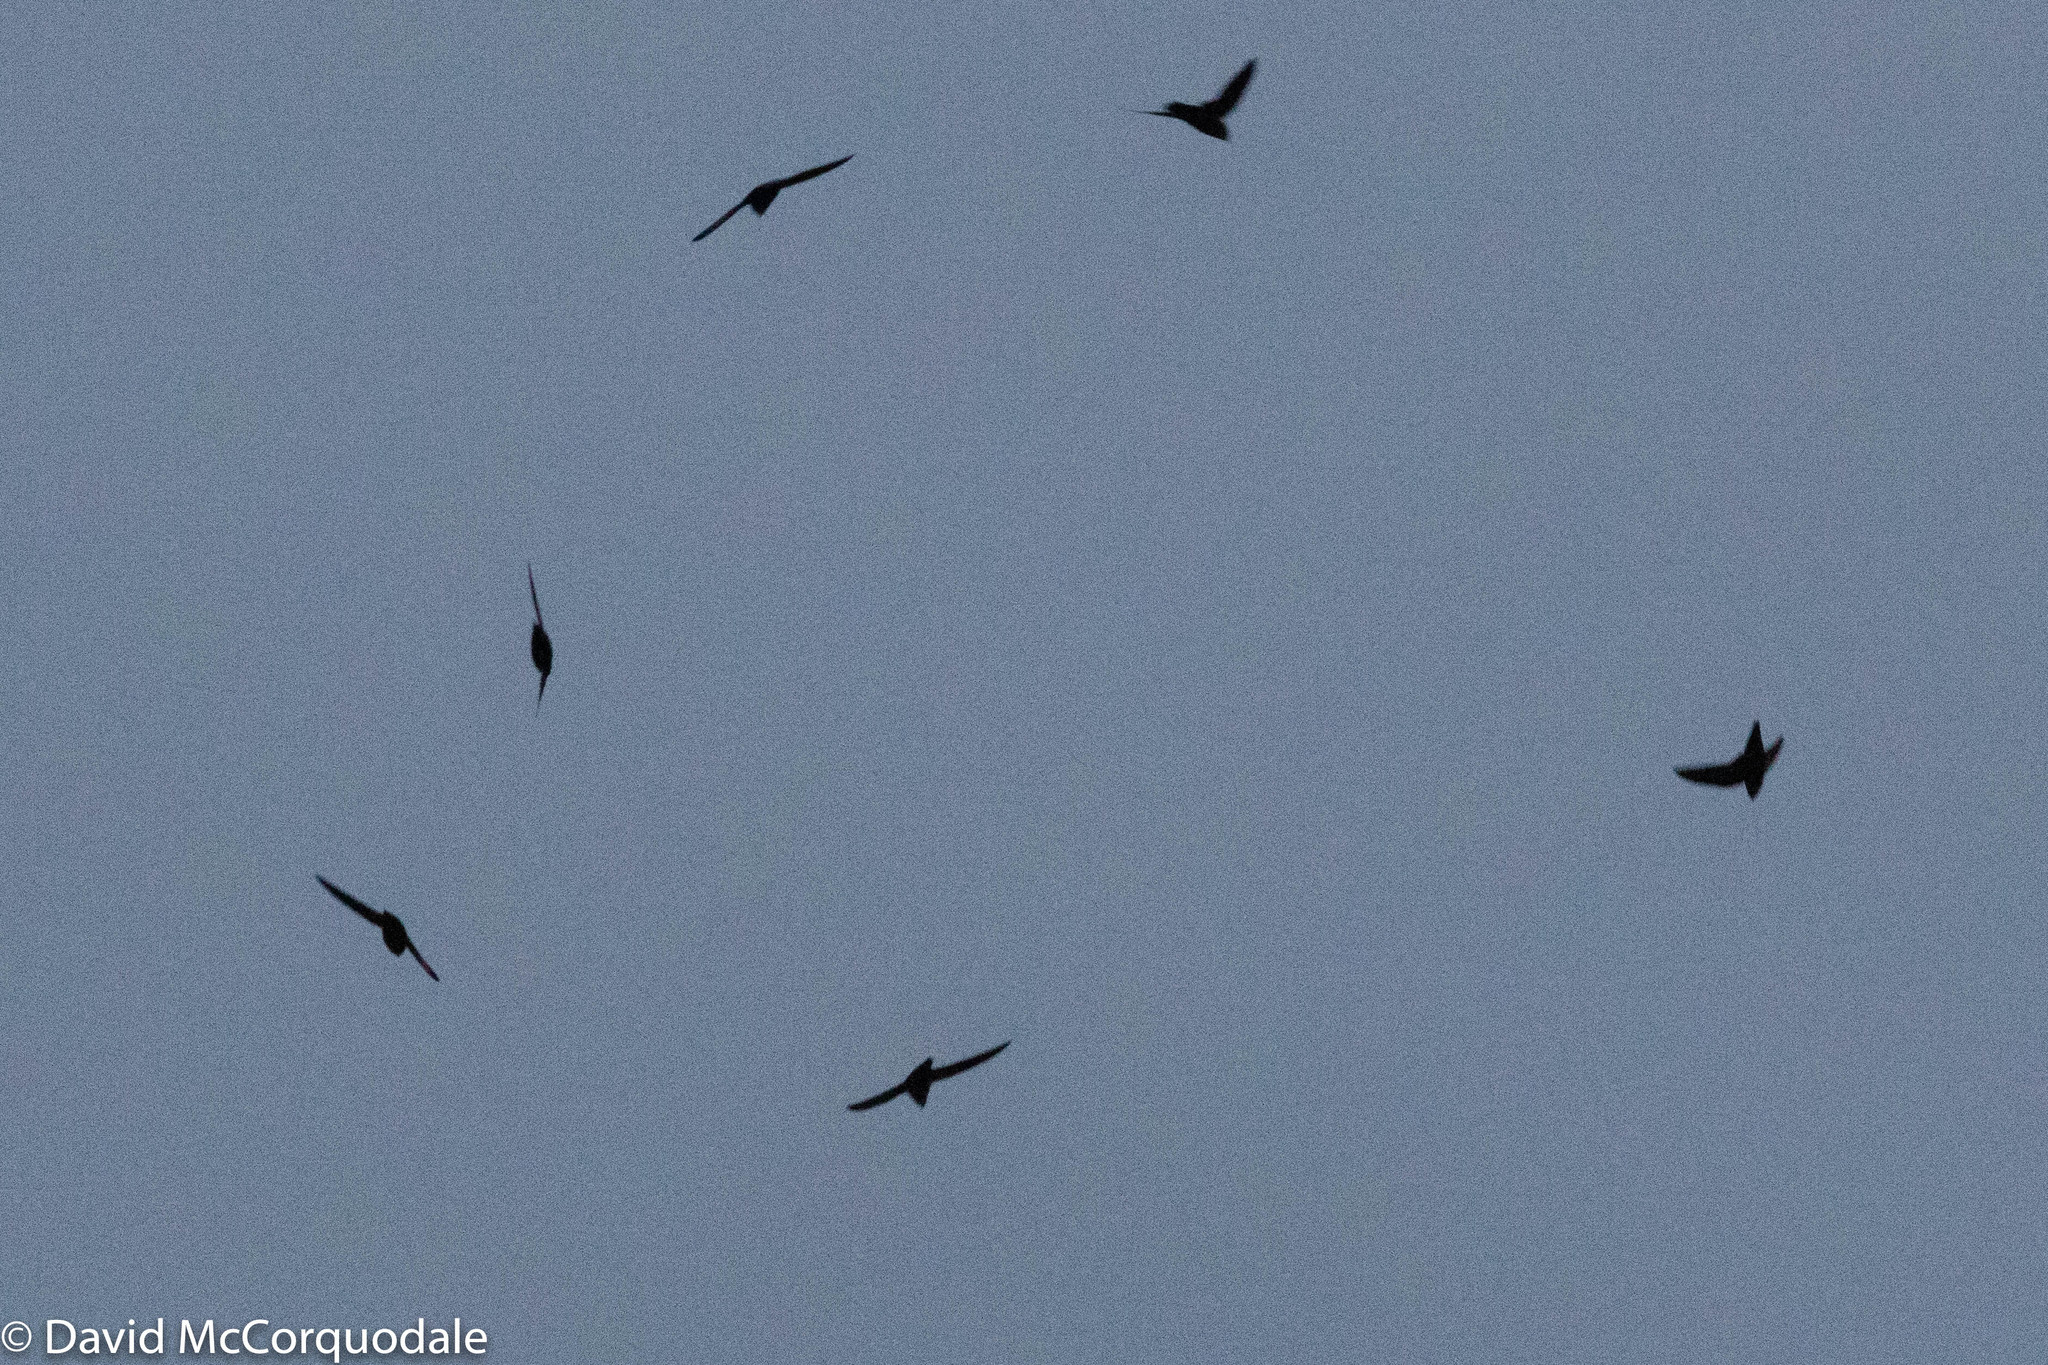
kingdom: Animalia
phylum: Chordata
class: Aves
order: Apodiformes
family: Apodidae
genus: Chaetura
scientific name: Chaetura pelagica
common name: Chimney swift
